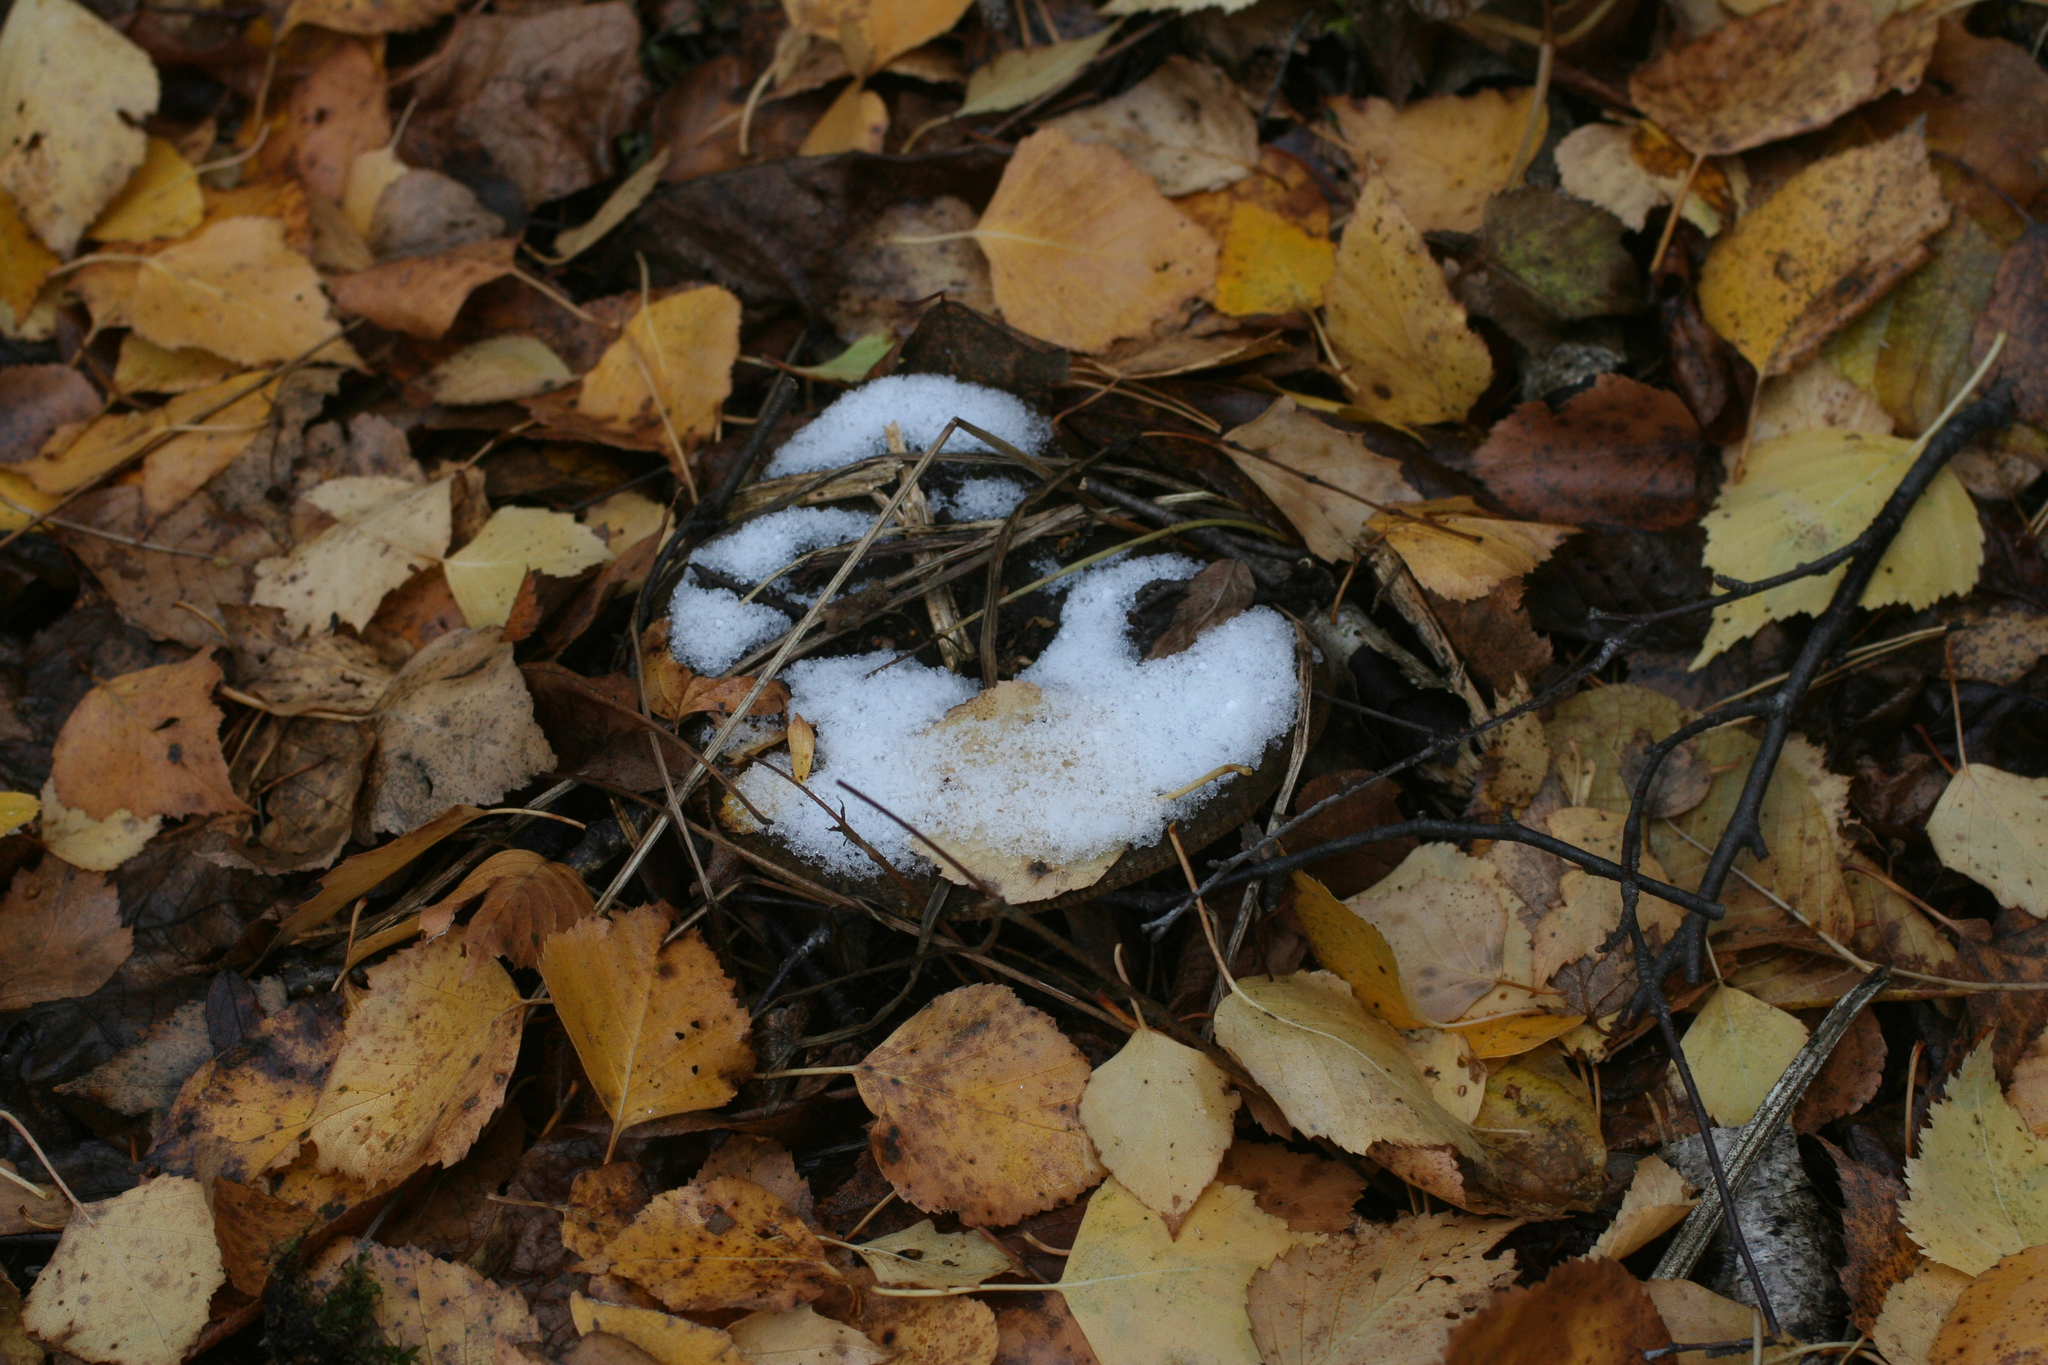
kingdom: Fungi
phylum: Basidiomycota
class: Agaricomycetes
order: Russulales
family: Russulaceae
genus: Lactarius
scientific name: Lactarius turpis
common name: Ugly milk-cap
